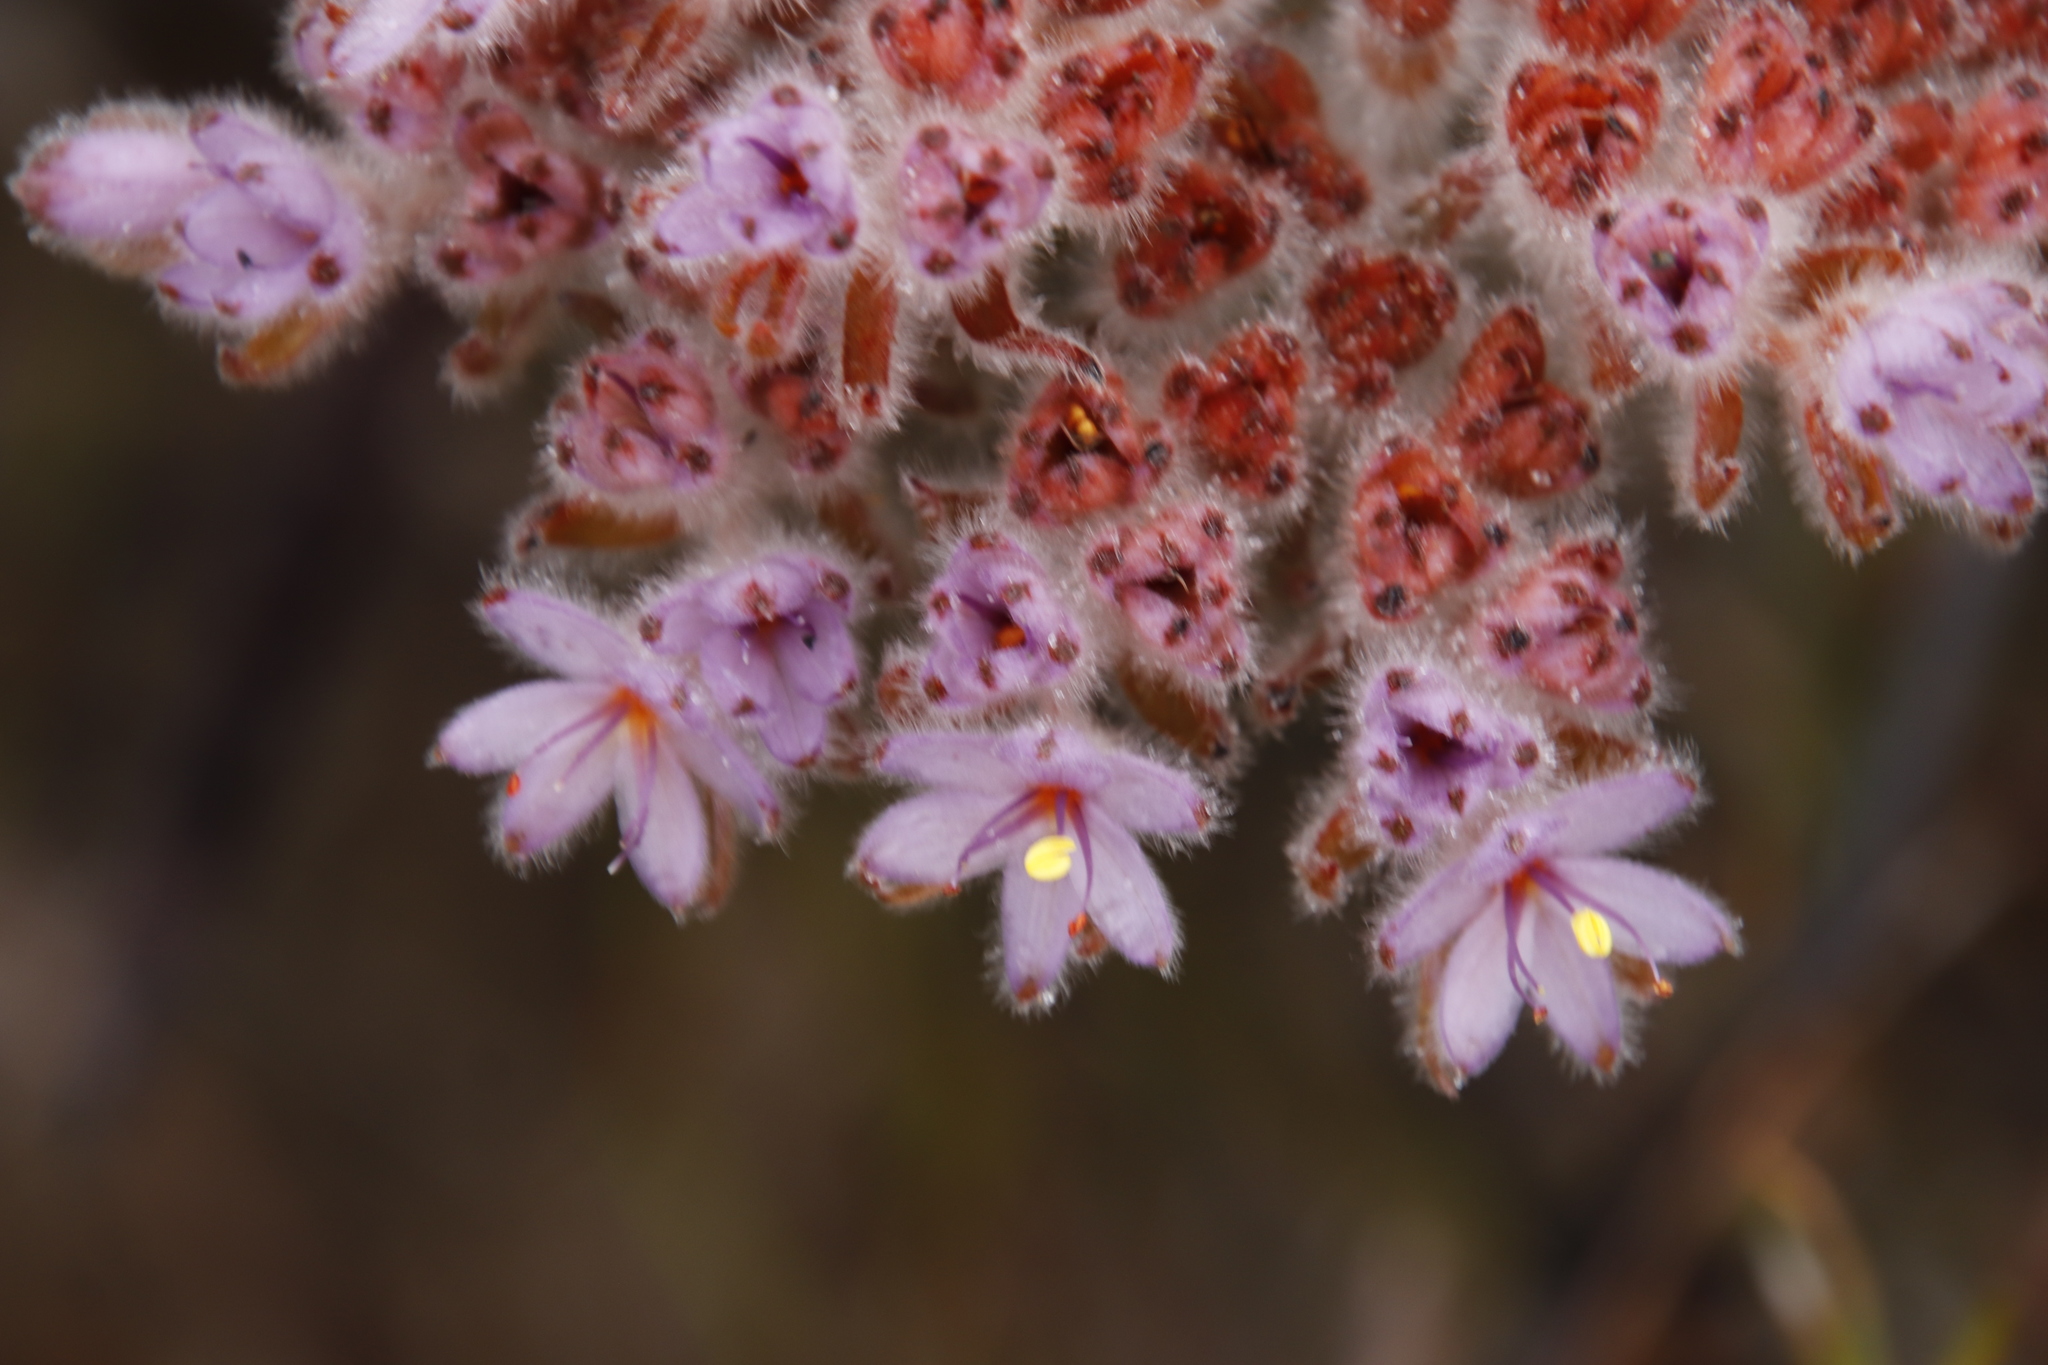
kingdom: Plantae
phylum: Tracheophyta
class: Liliopsida
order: Commelinales
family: Haemodoraceae
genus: Dilatris
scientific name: Dilatris corymbosa
